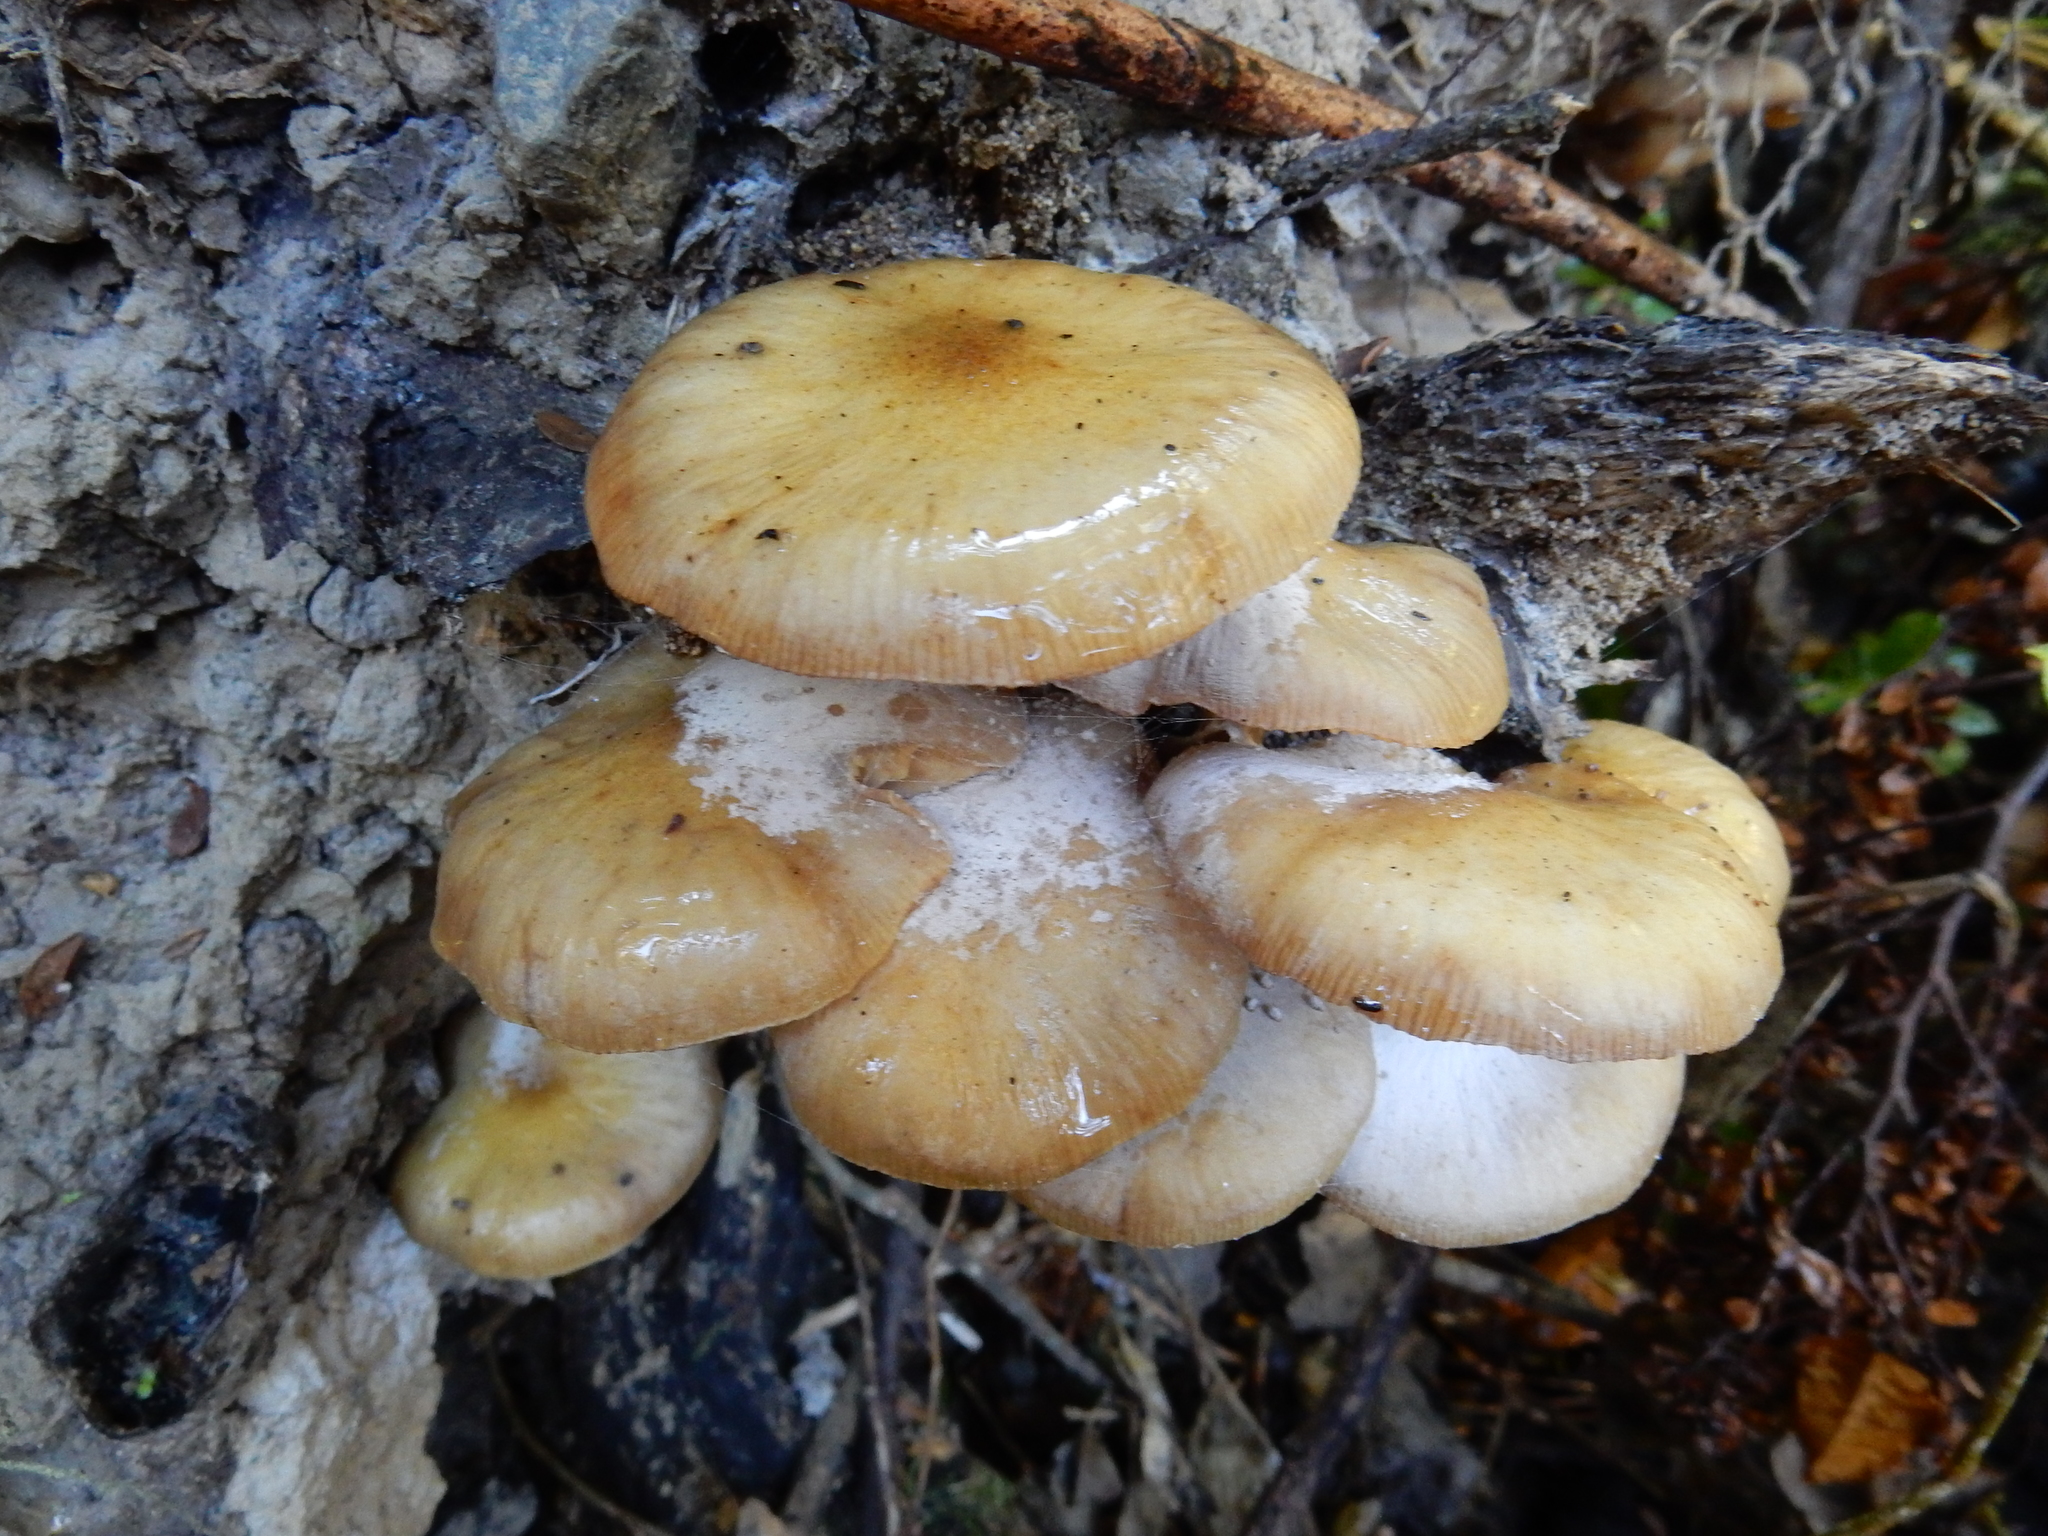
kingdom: Fungi
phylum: Basidiomycota
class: Agaricomycetes
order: Agaricales
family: Physalacriaceae
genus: Armillaria
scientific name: Armillaria novae-zelandiae
